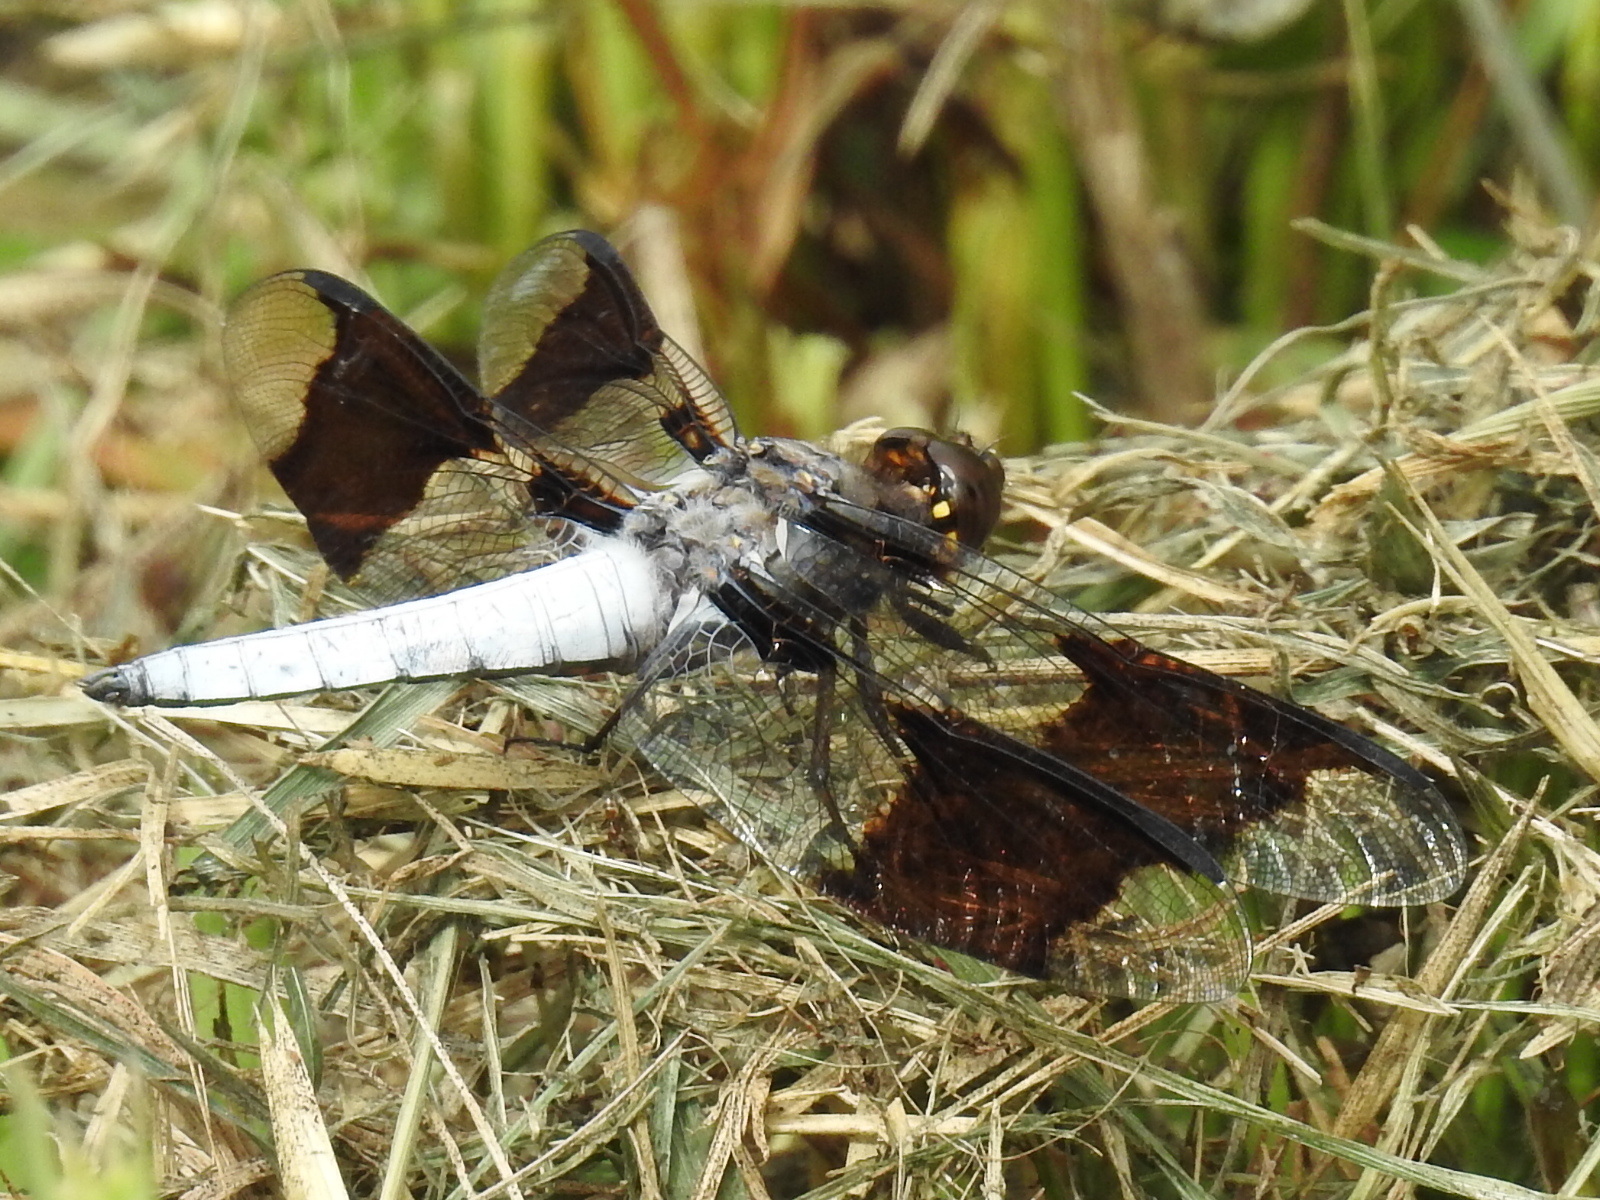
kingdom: Animalia
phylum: Arthropoda
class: Insecta
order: Odonata
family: Libellulidae
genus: Plathemis
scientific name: Plathemis lydia
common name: Common whitetail
